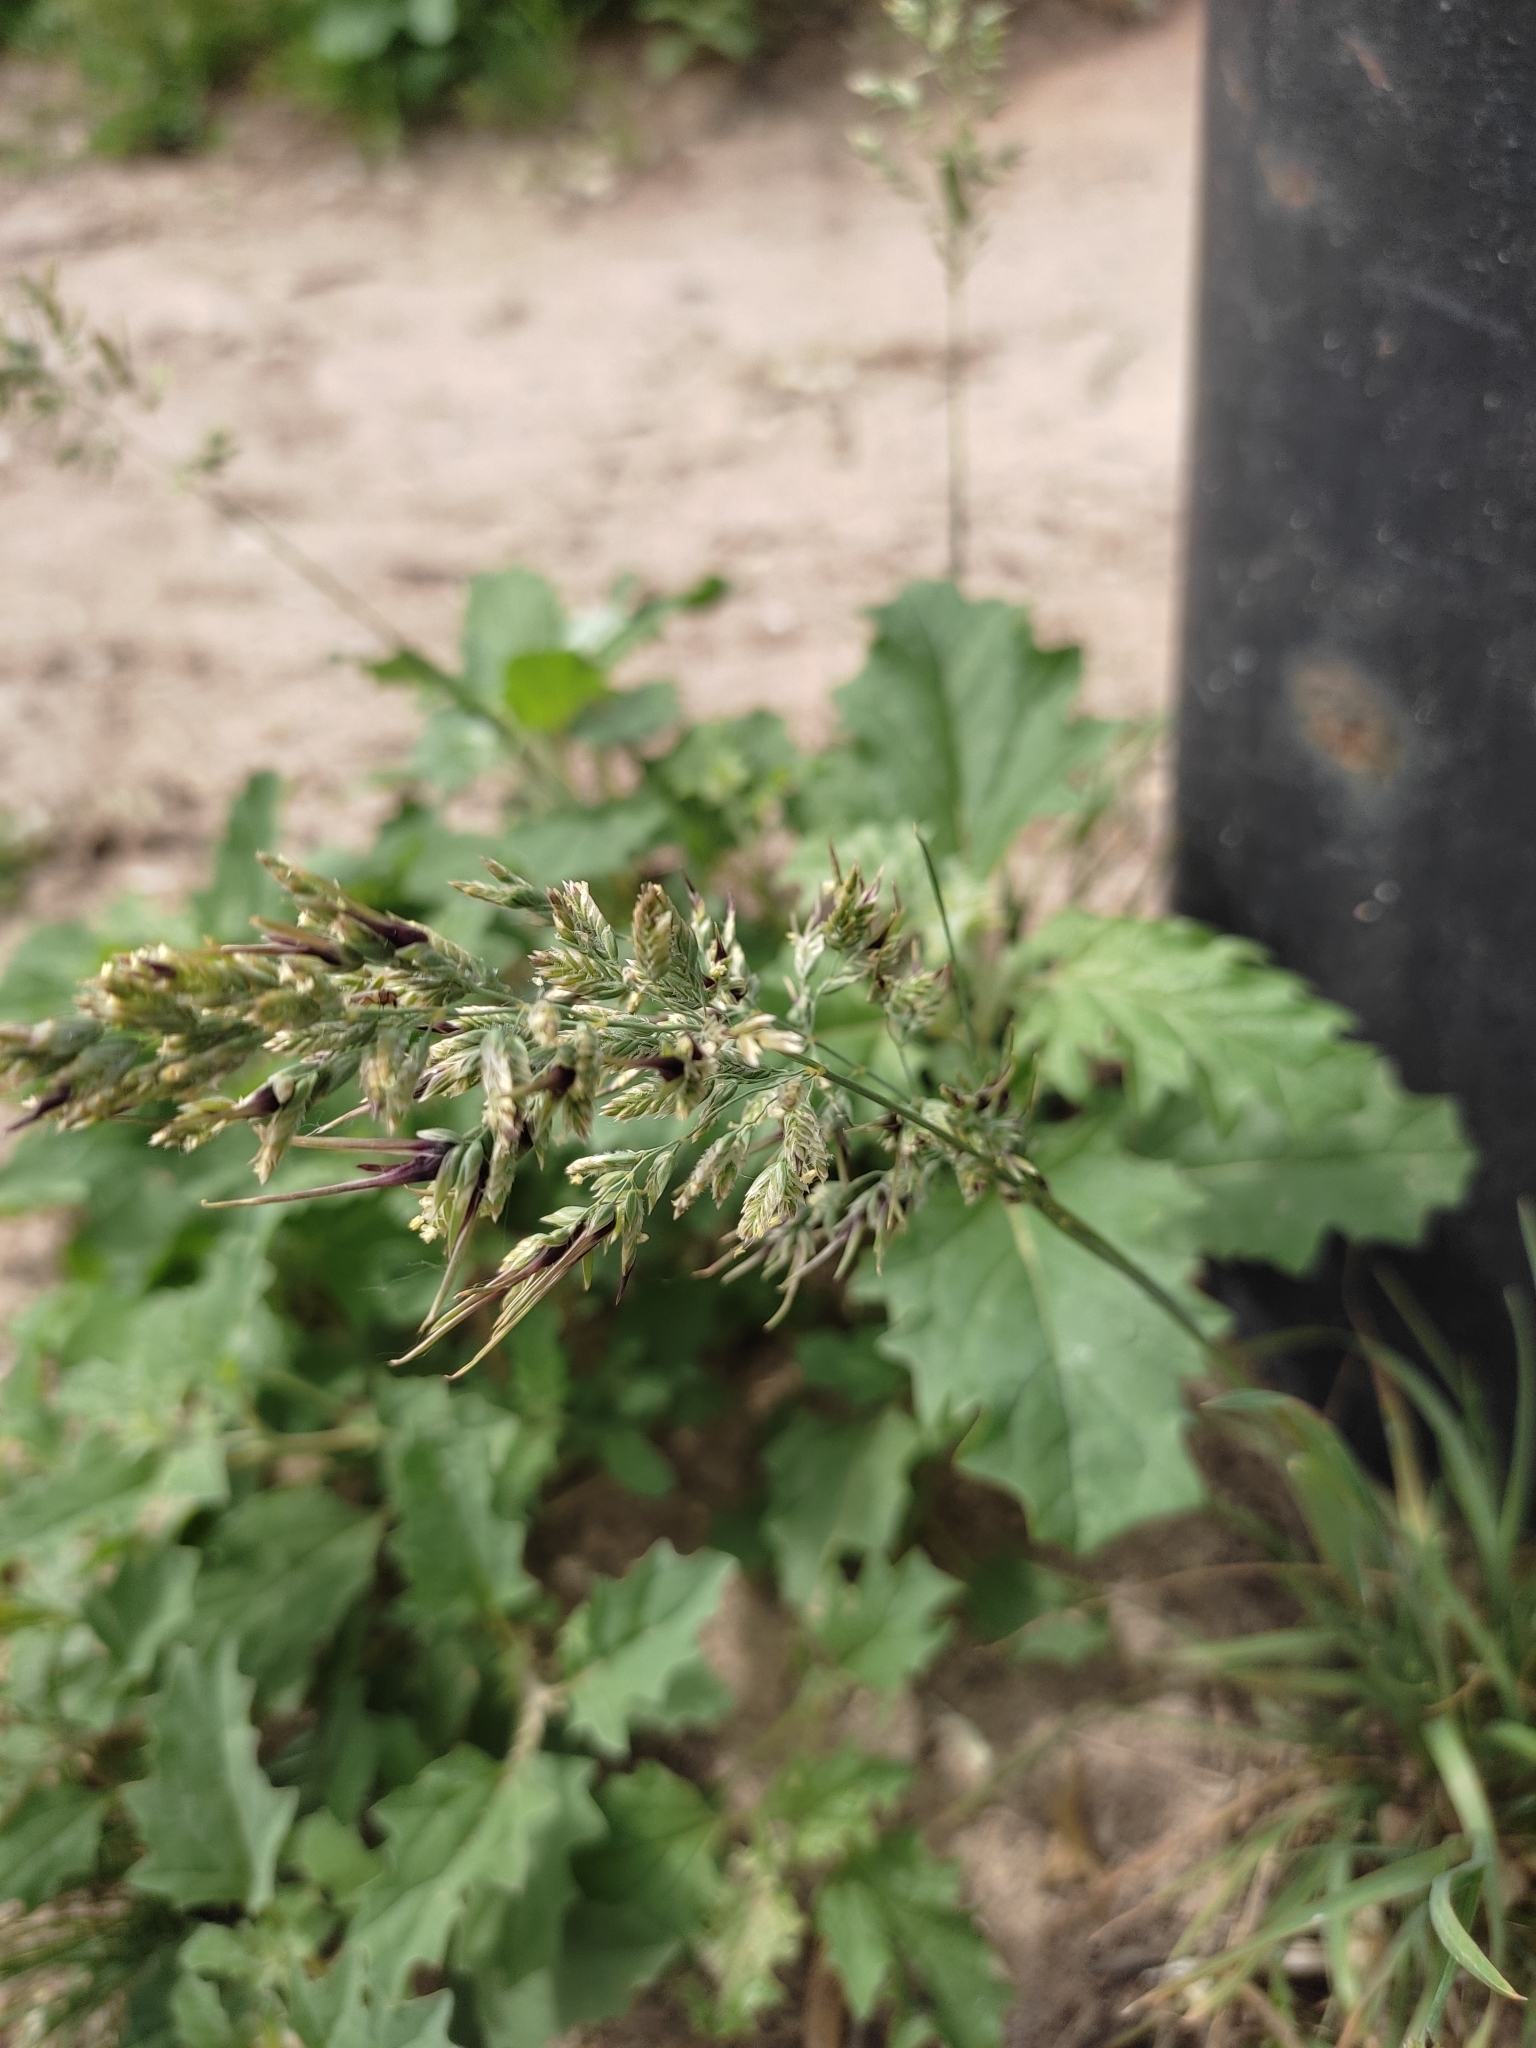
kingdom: Plantae
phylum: Tracheophyta
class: Liliopsida
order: Poales
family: Poaceae
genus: Poa
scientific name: Poa bulbosa
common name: Bulbous bluegrass
